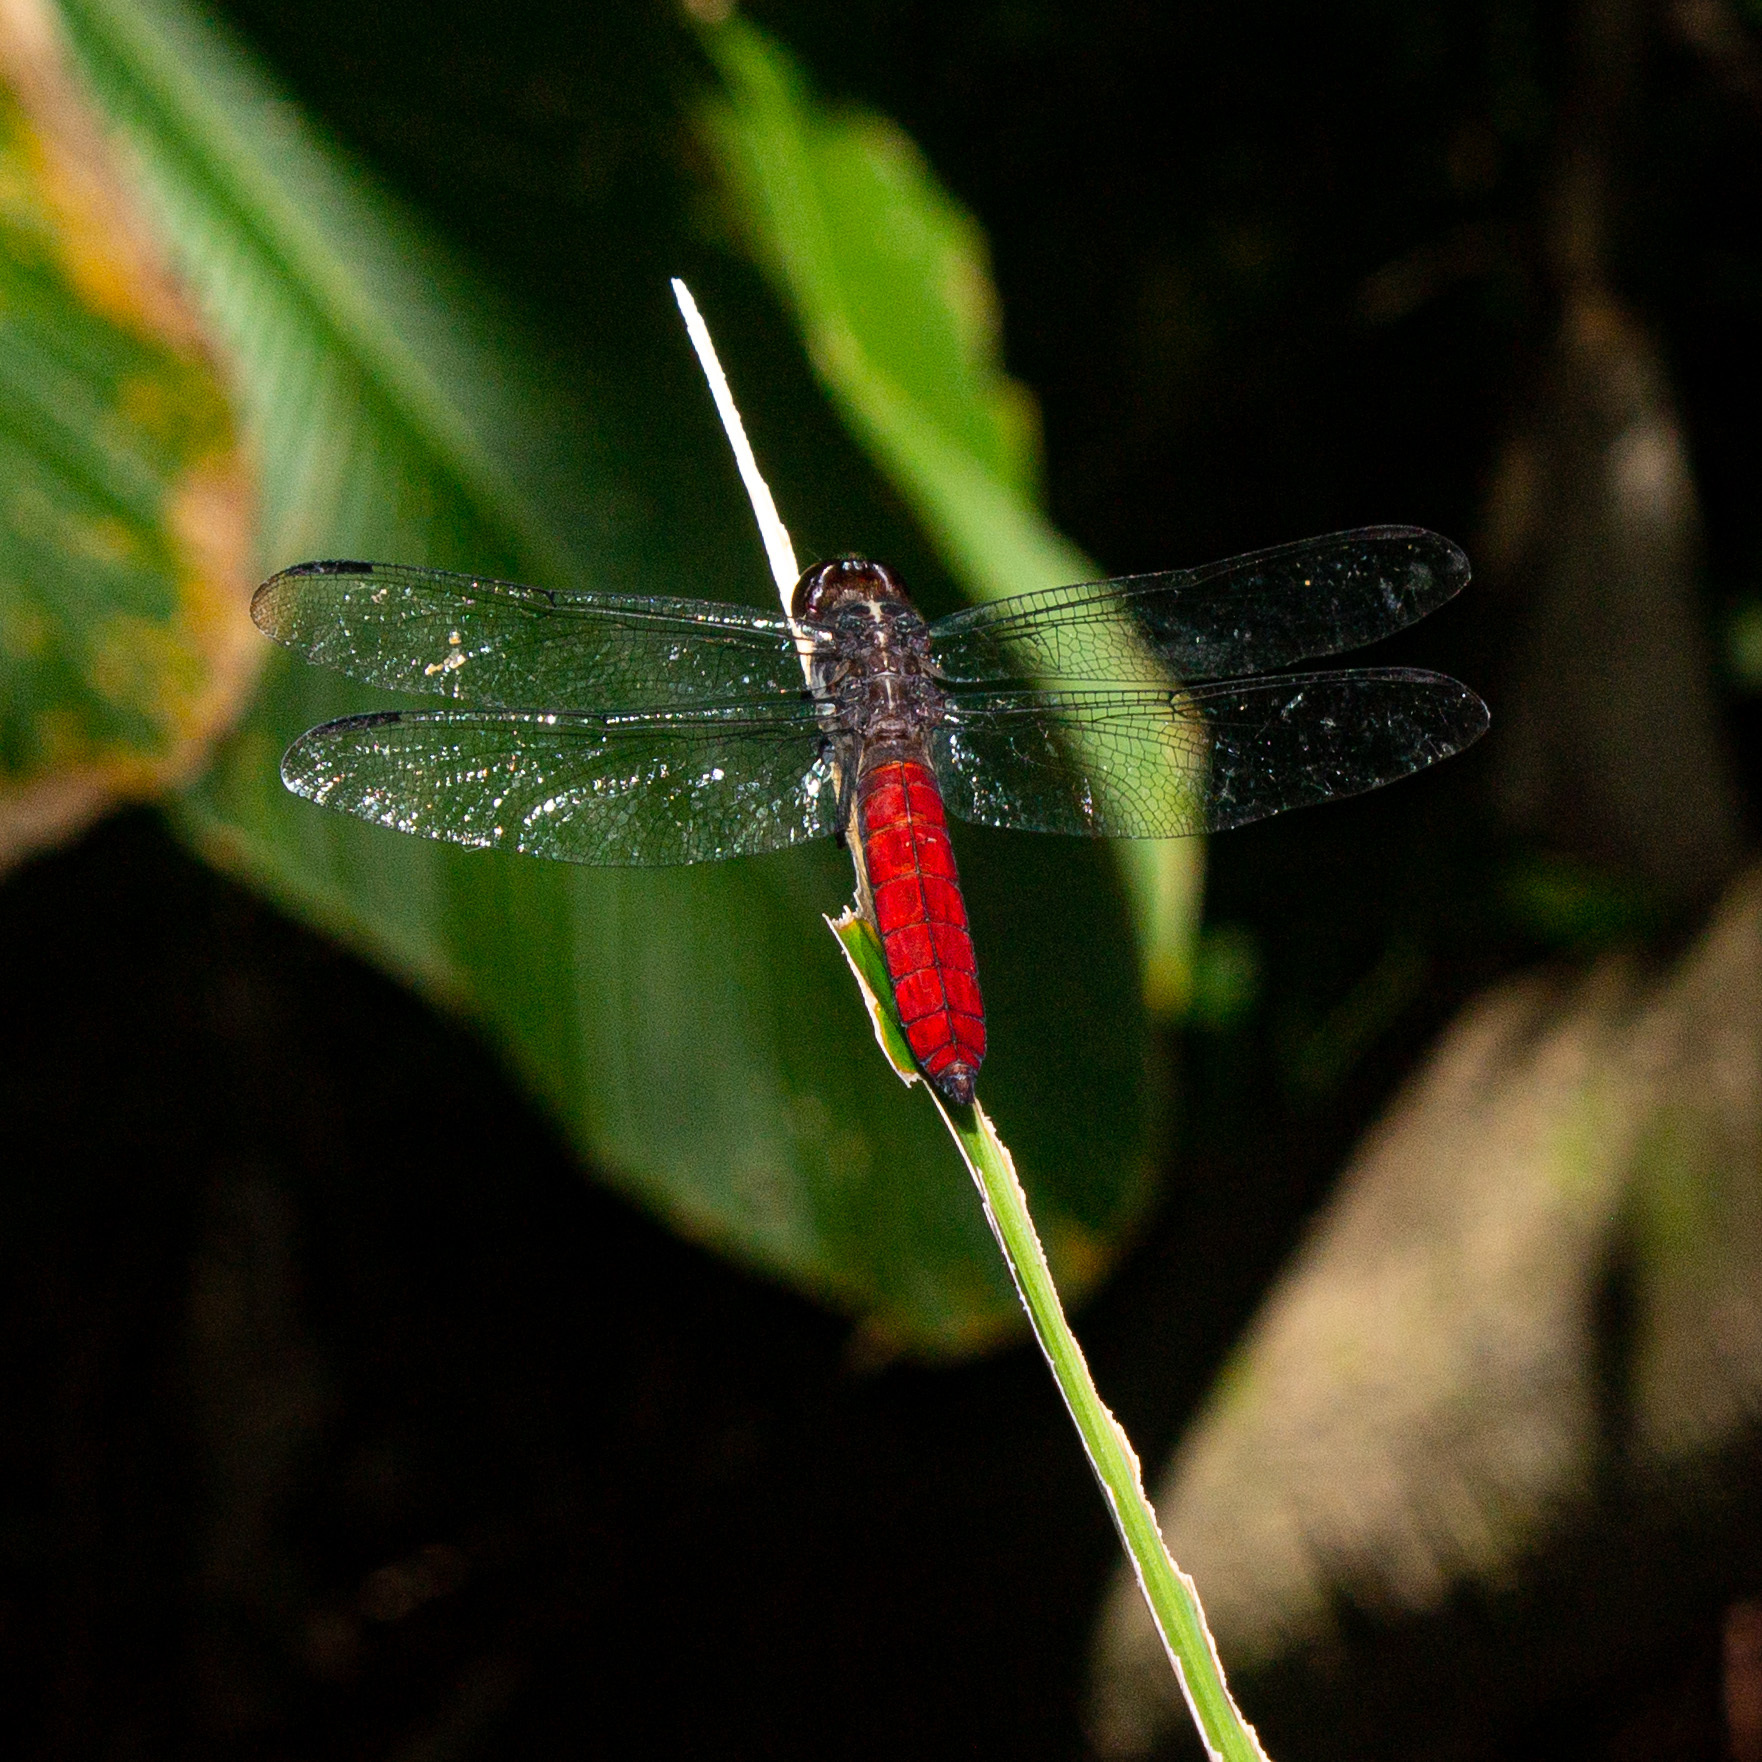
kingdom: Animalia
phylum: Arthropoda
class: Insecta
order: Odonata
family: Libellulidae
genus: Libellula
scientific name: Libellula herculea
